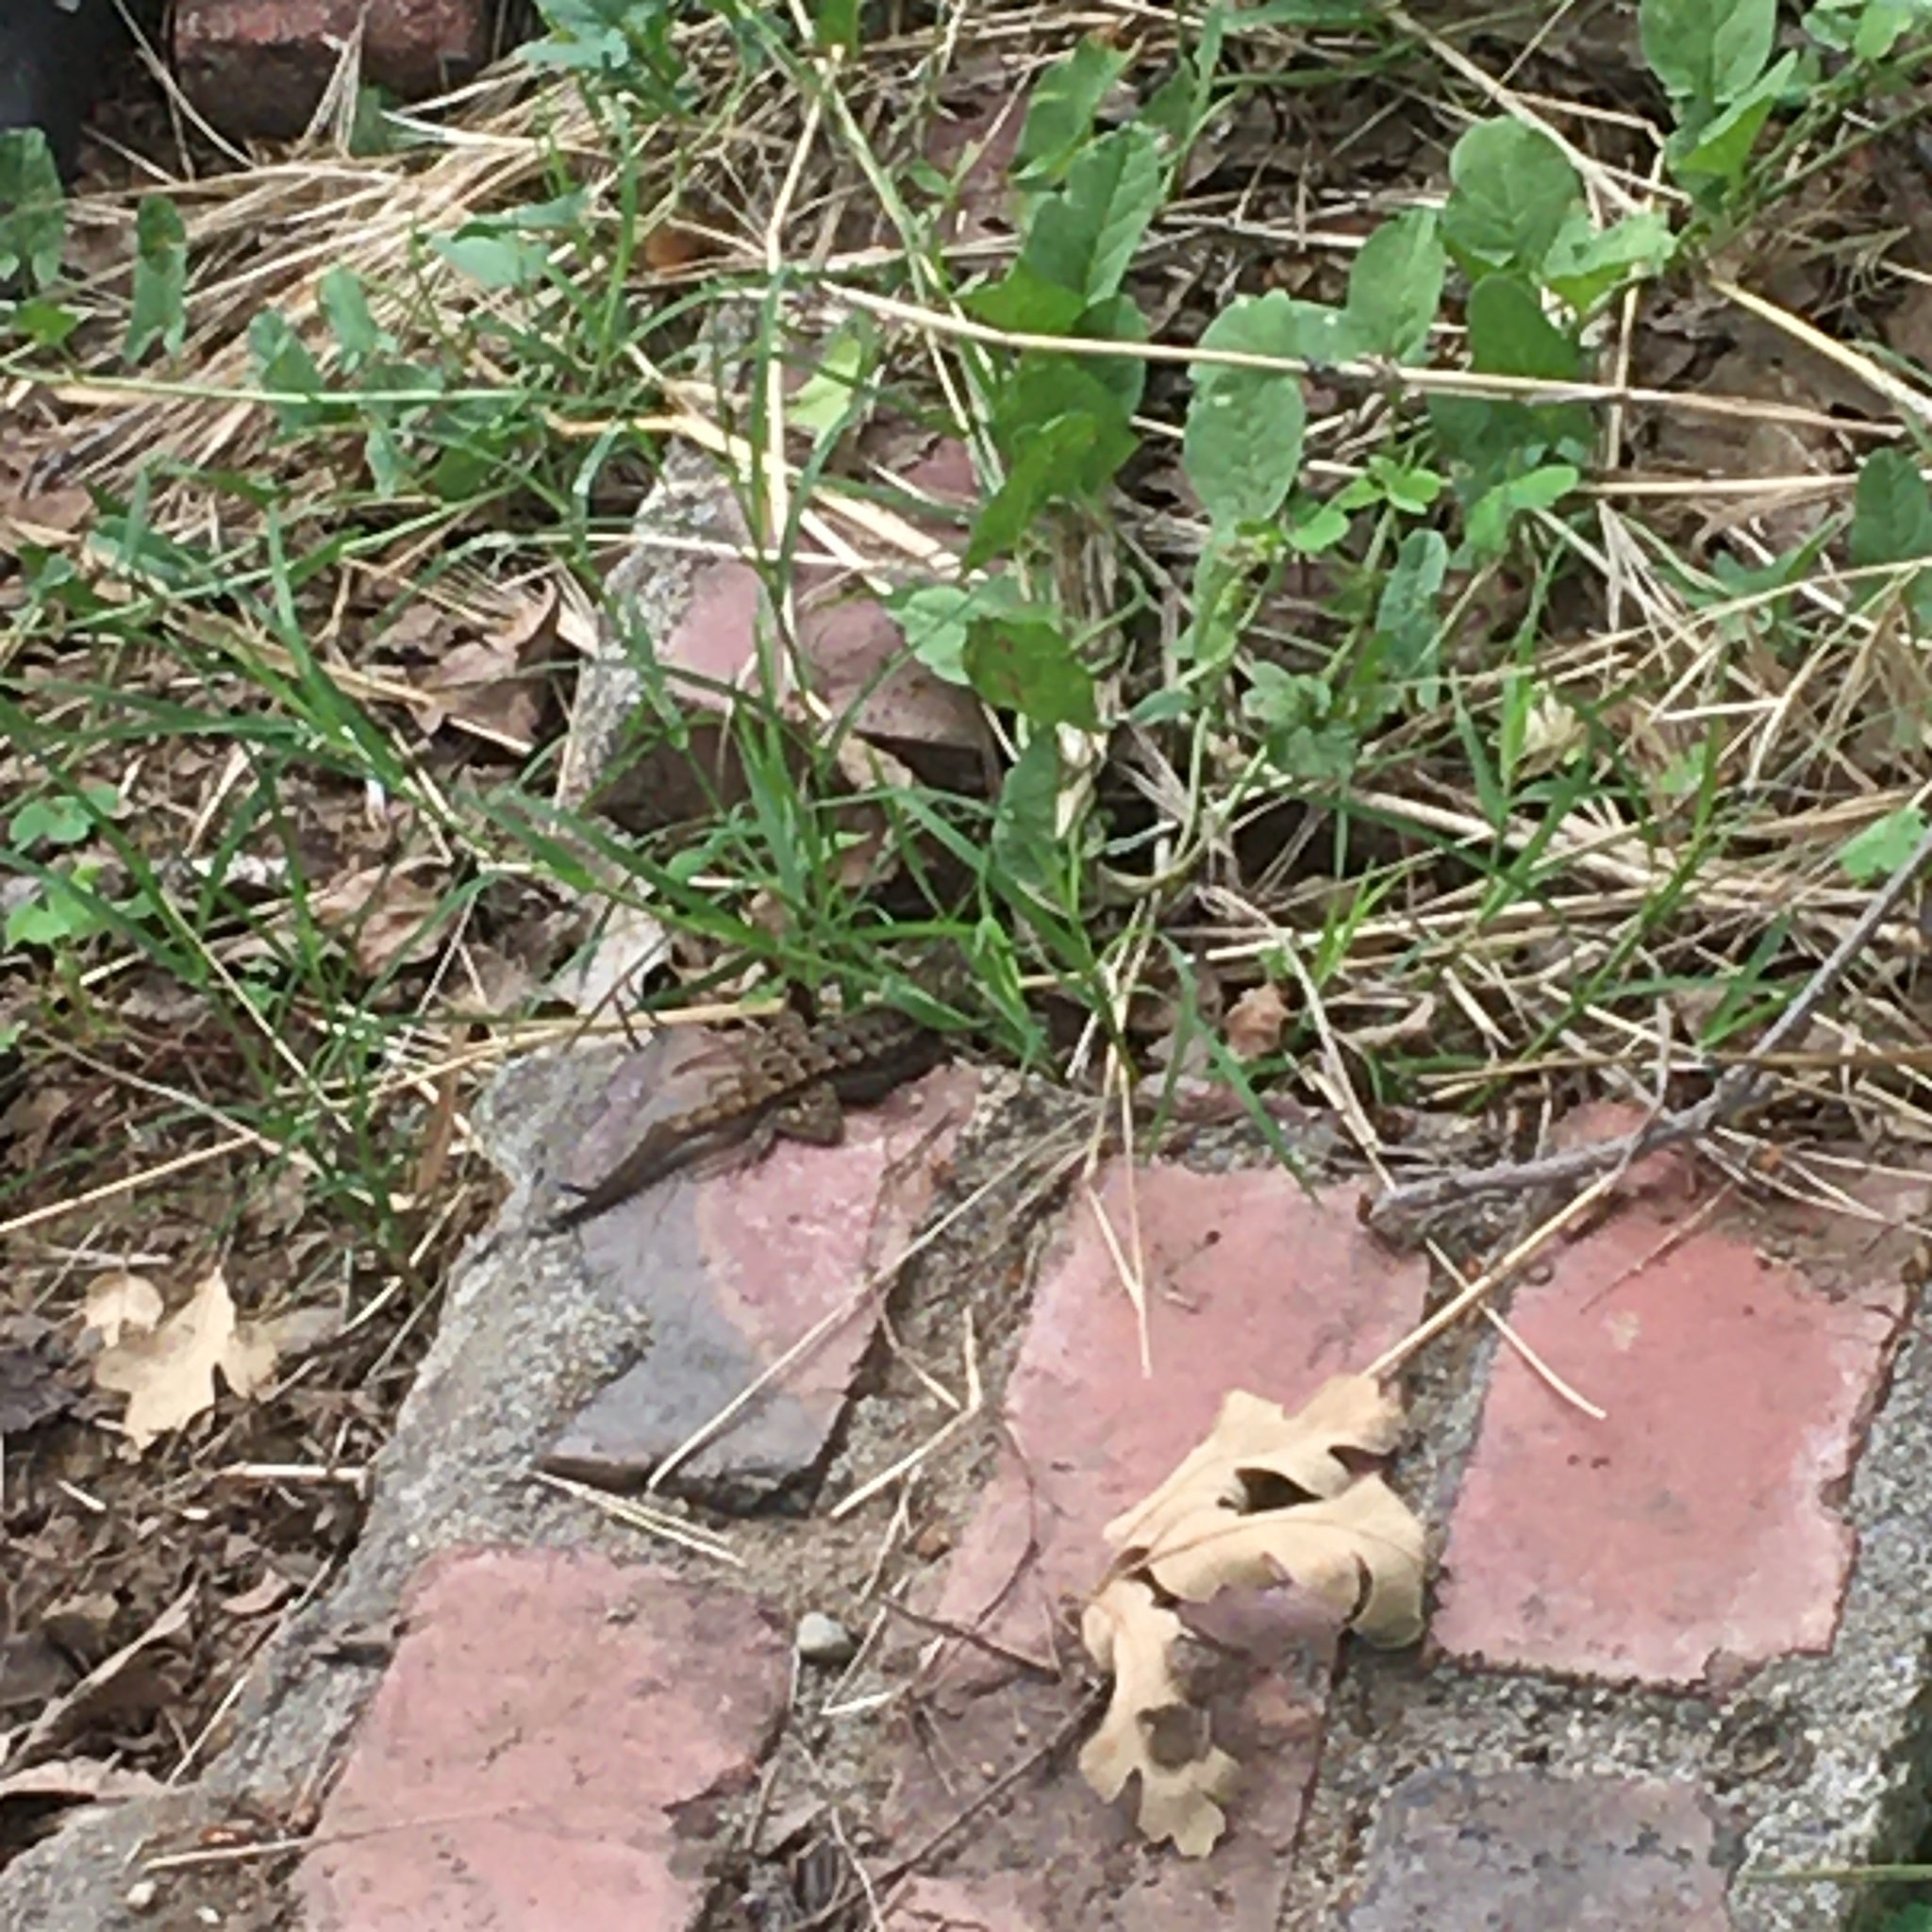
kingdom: Animalia
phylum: Chordata
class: Squamata
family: Phrynosomatidae
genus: Sceloporus
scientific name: Sceloporus occidentalis
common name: Western fence lizard
